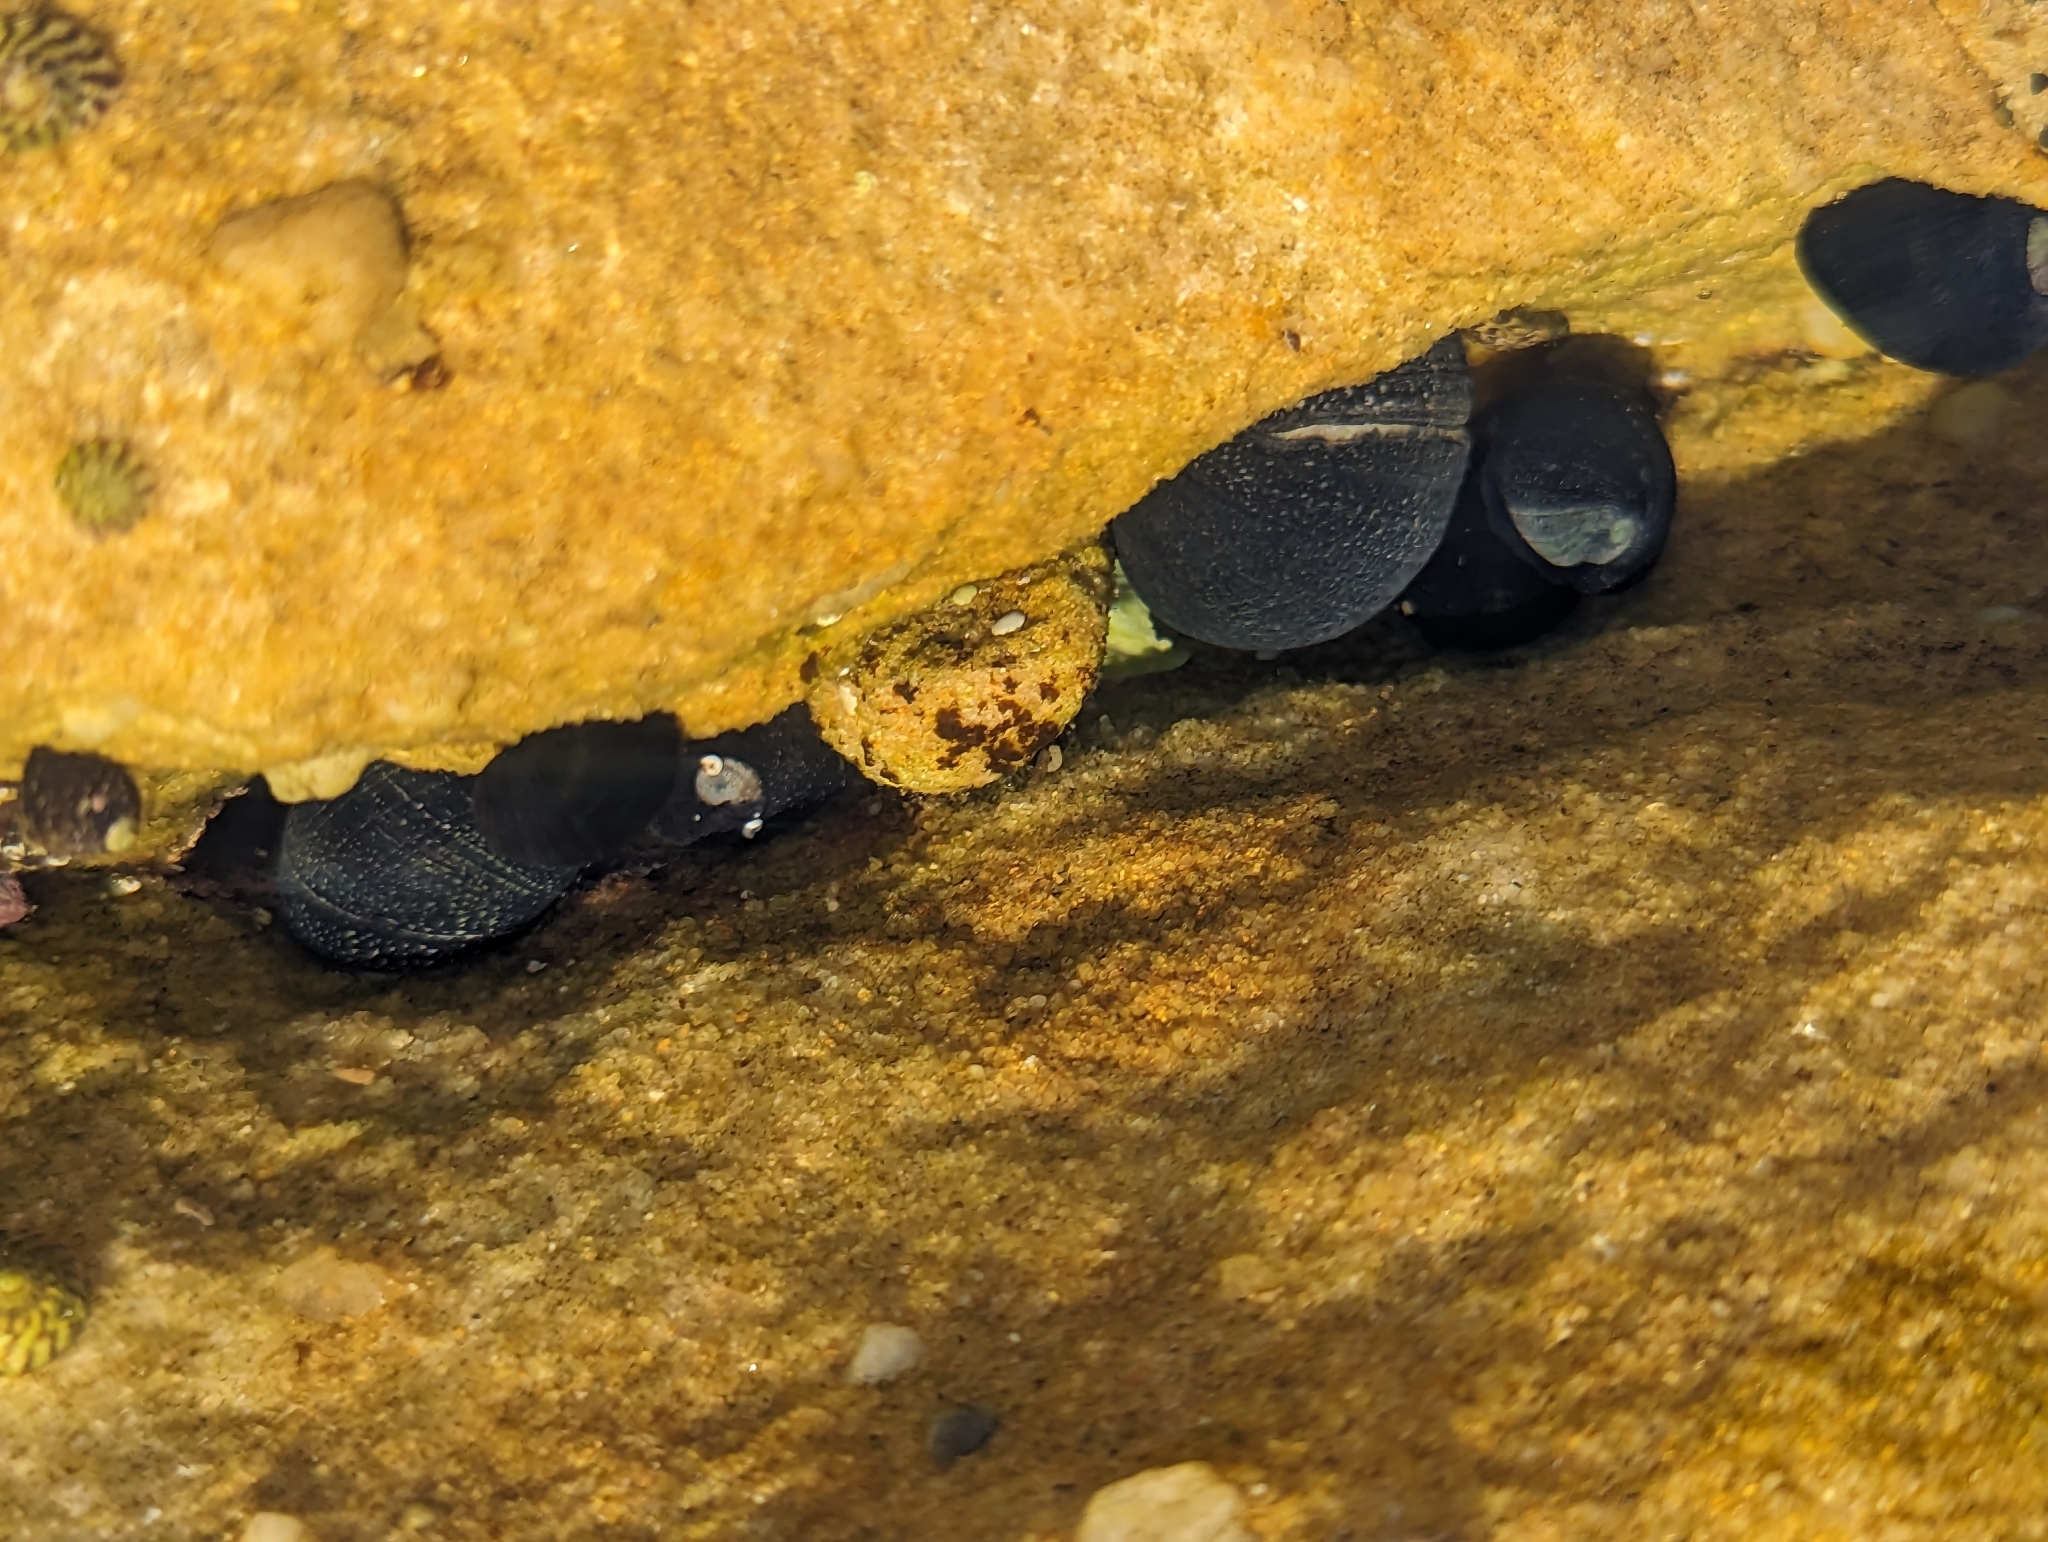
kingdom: Animalia
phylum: Mollusca
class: Gastropoda
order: Cycloneritida
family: Neritidae
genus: Nerita
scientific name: Nerita melanotragus
